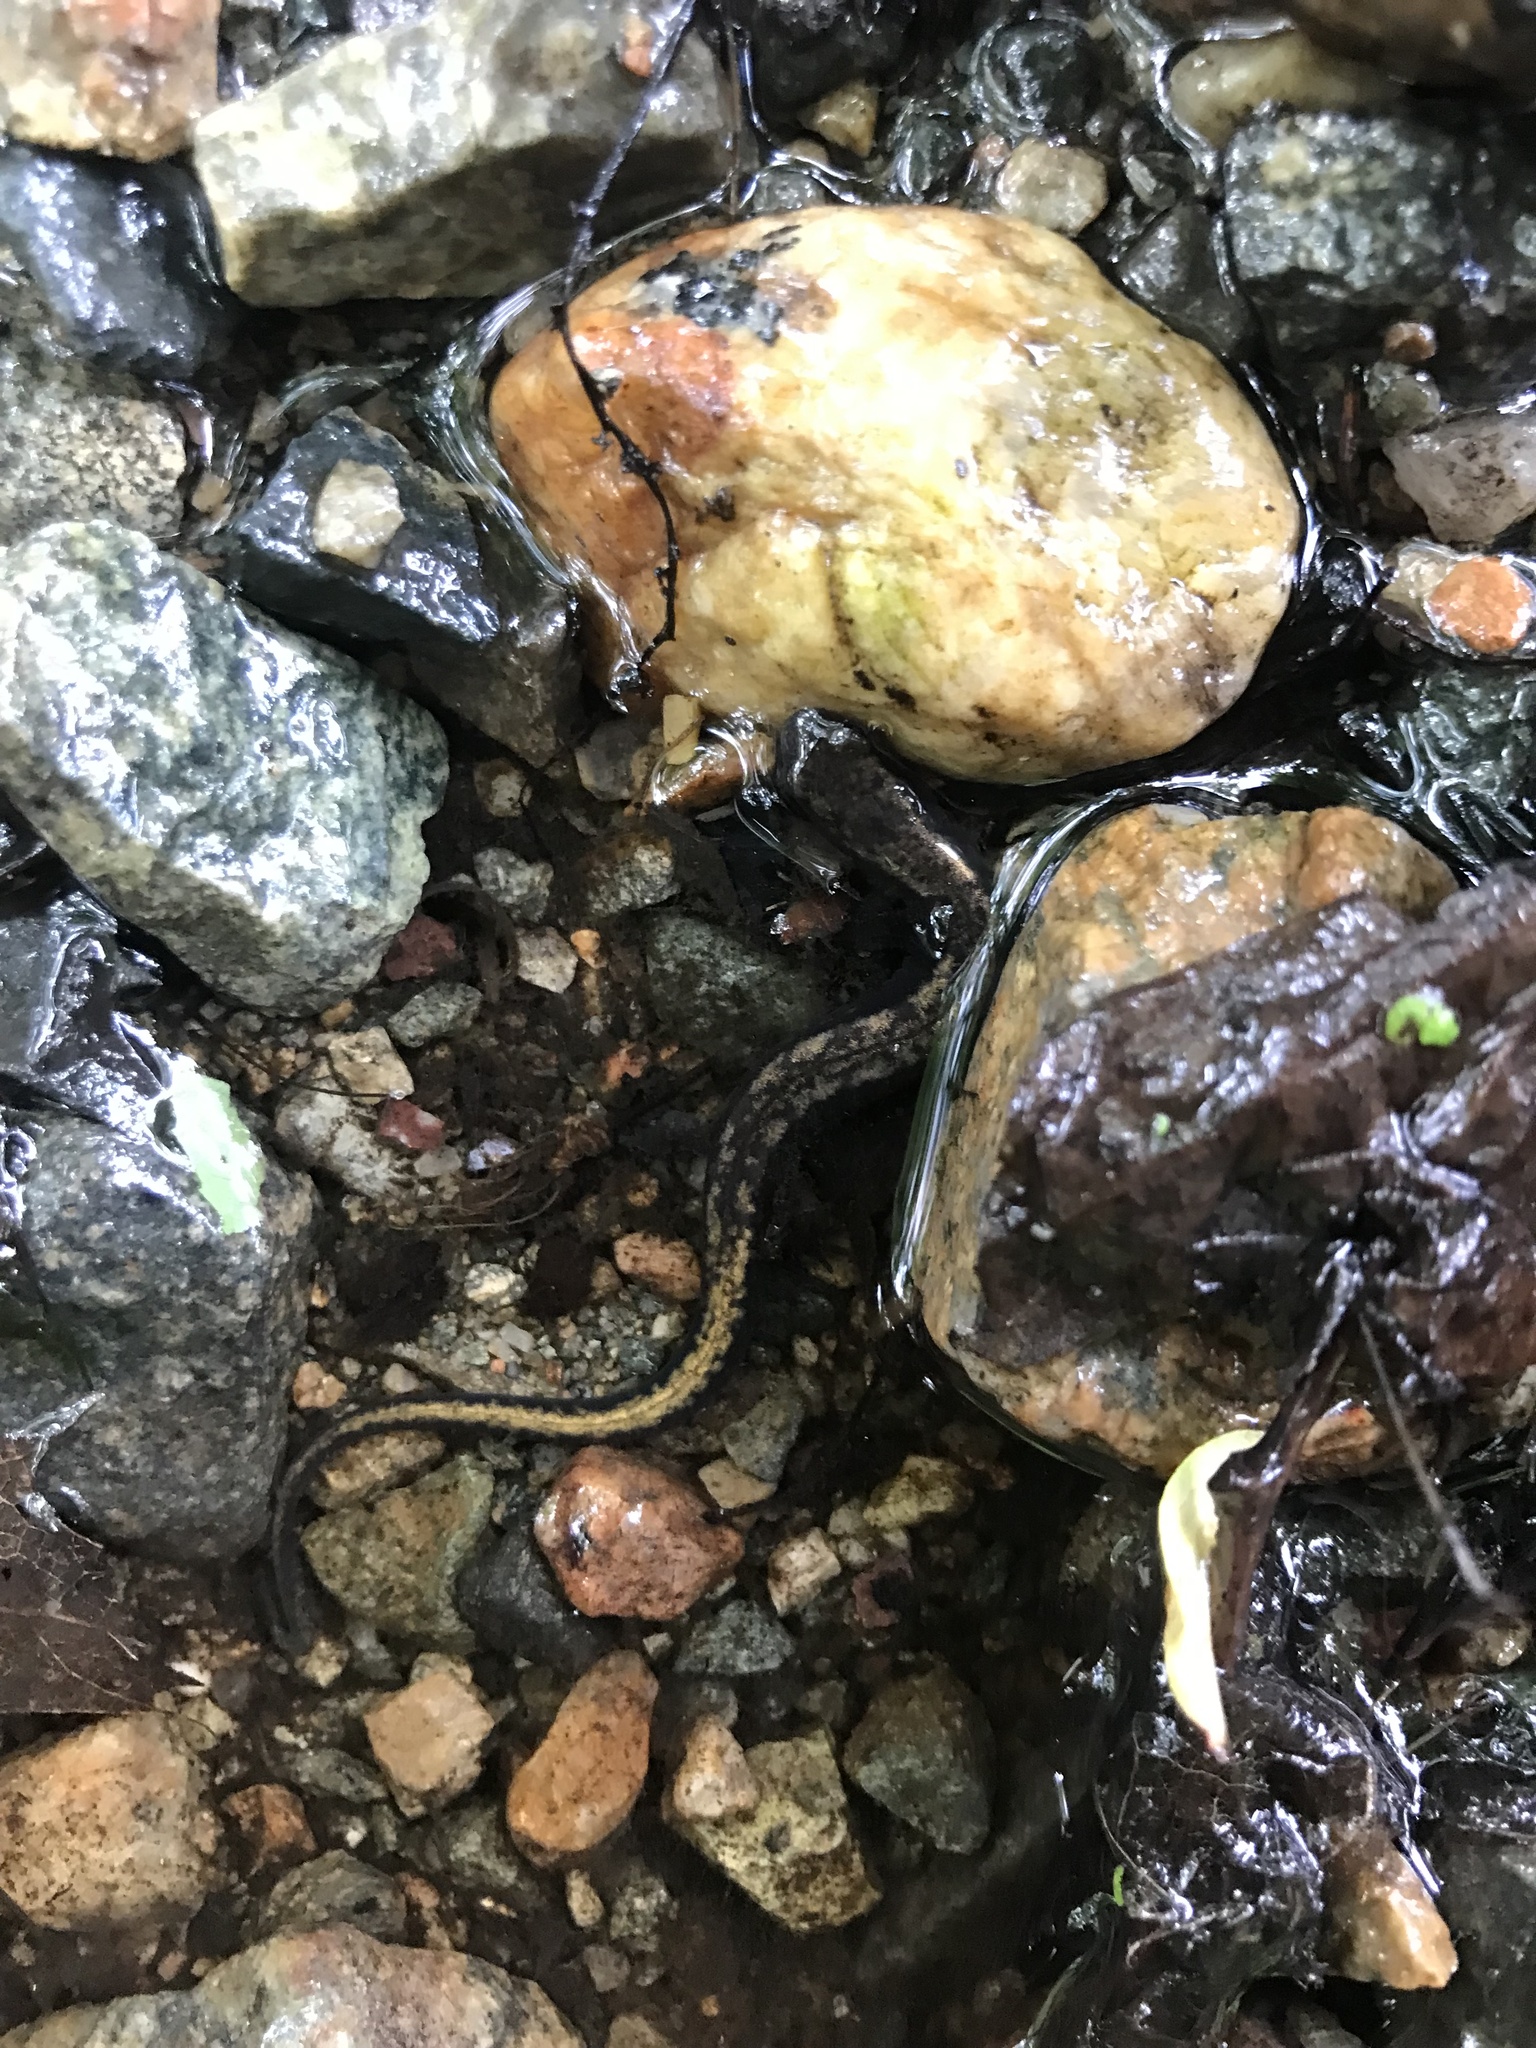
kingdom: Animalia
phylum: Chordata
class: Amphibia
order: Caudata
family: Plethodontidae
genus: Eurycea
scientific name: Eurycea bislineata
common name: Northern two-lined salamander
